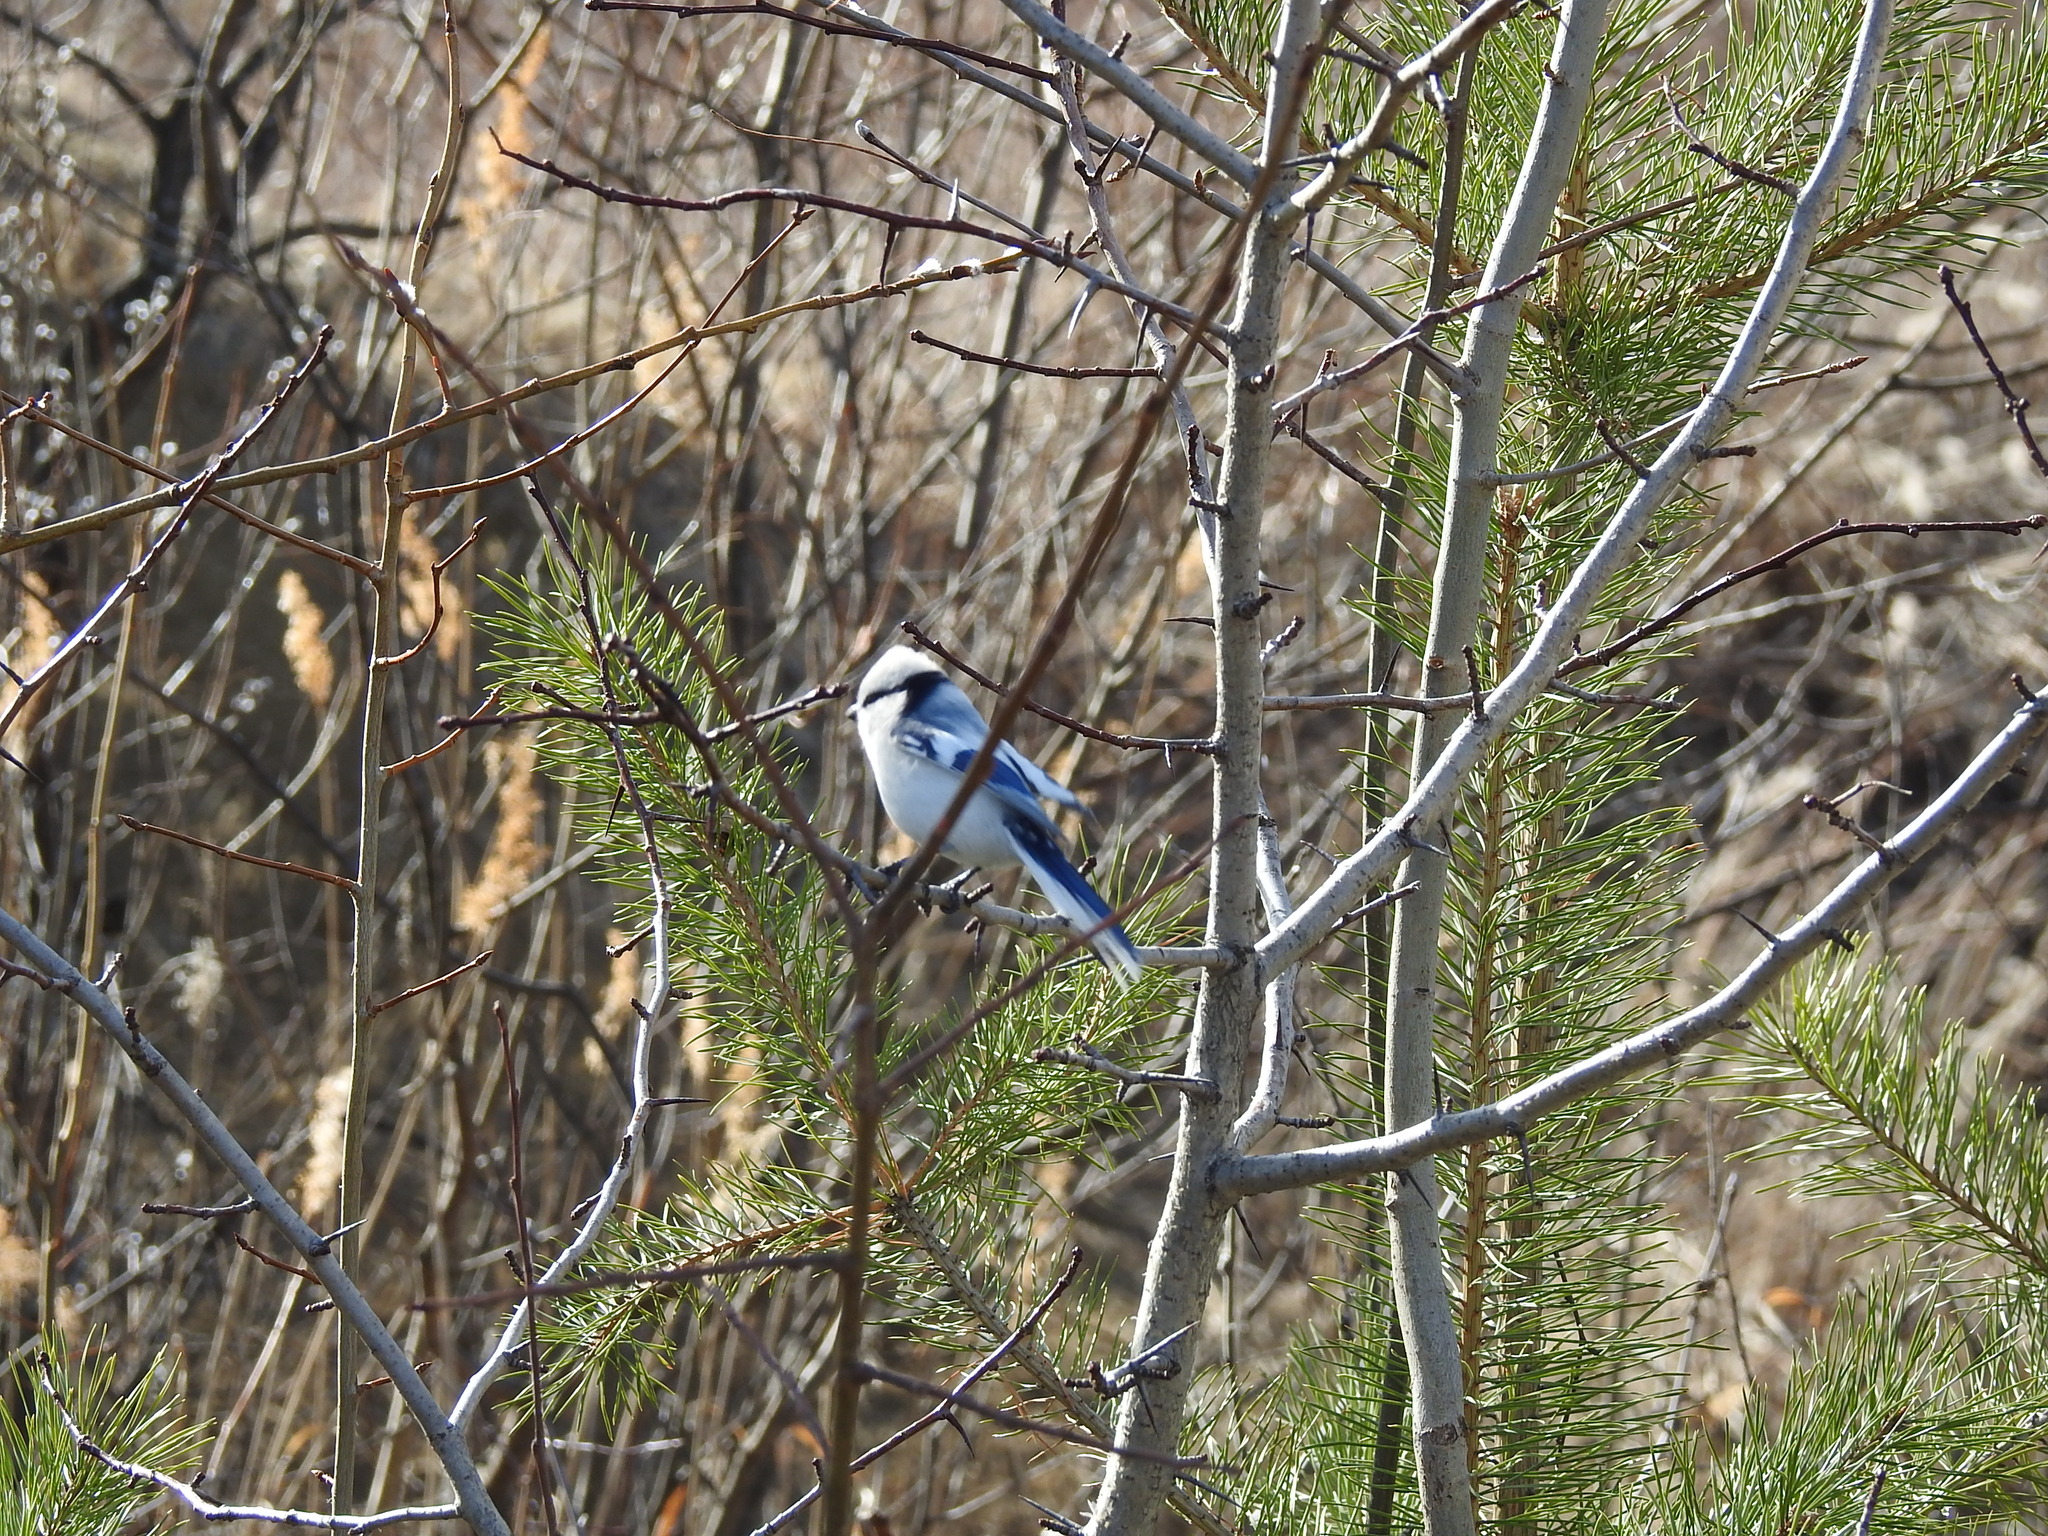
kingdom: Animalia
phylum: Chordata
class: Aves
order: Passeriformes
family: Paridae
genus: Cyanistes
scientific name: Cyanistes cyanus
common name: Azure tit
